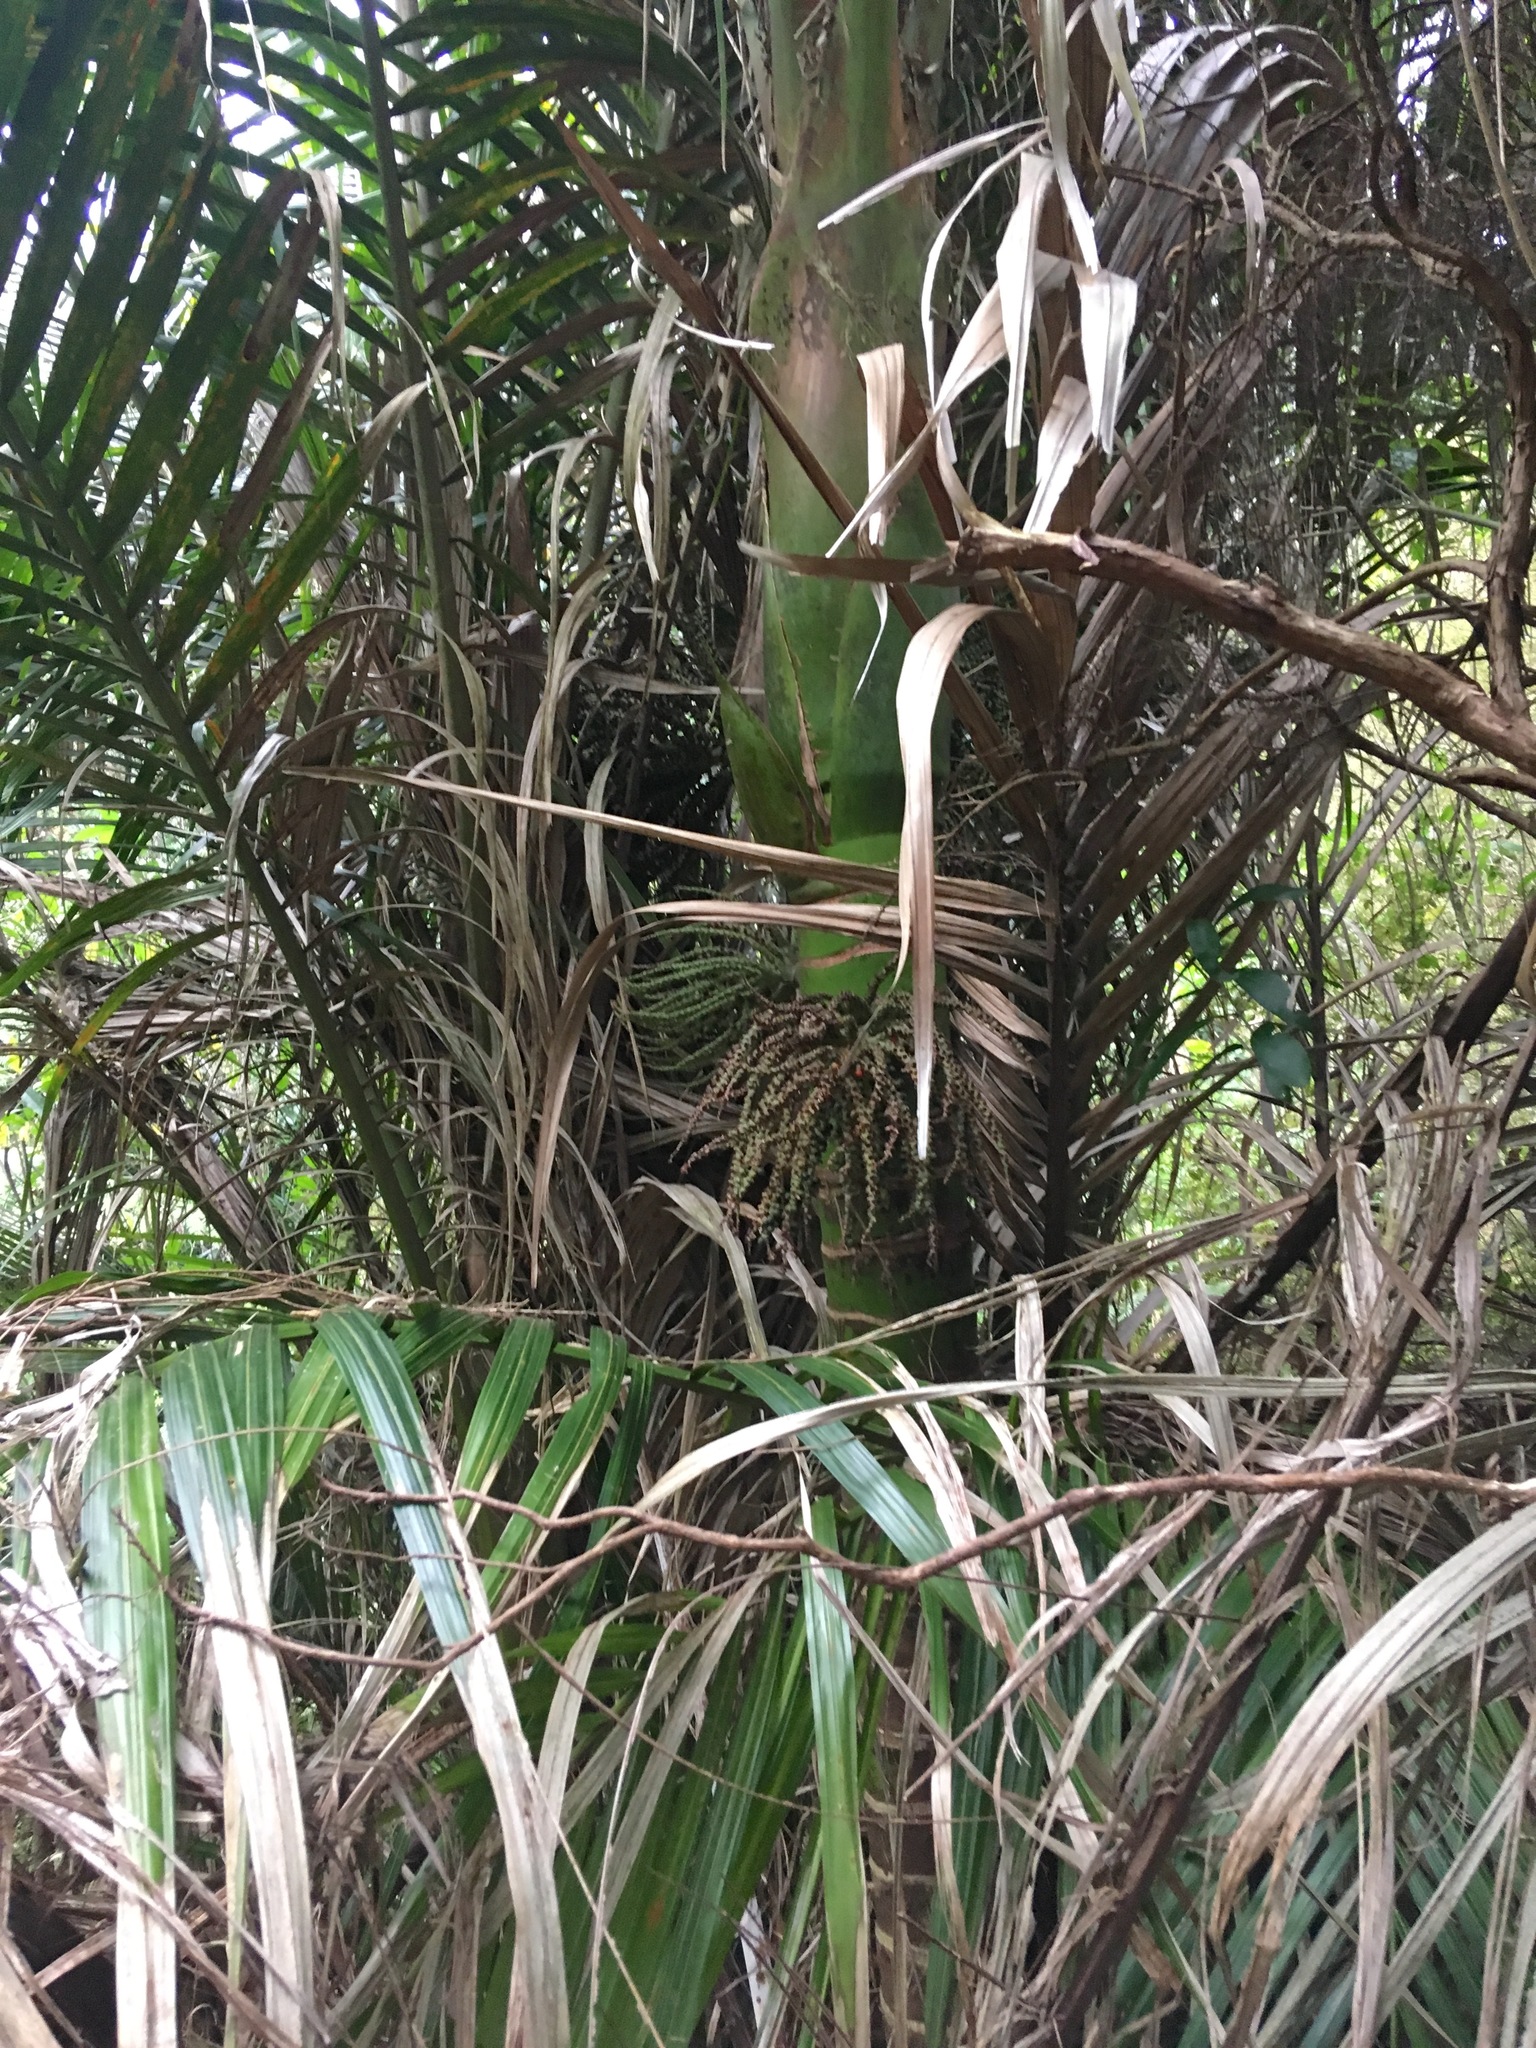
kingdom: Plantae
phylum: Tracheophyta
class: Liliopsida
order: Arecales
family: Arecaceae
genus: Rhopalostylis
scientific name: Rhopalostylis sapida
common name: Feather-duster palm
